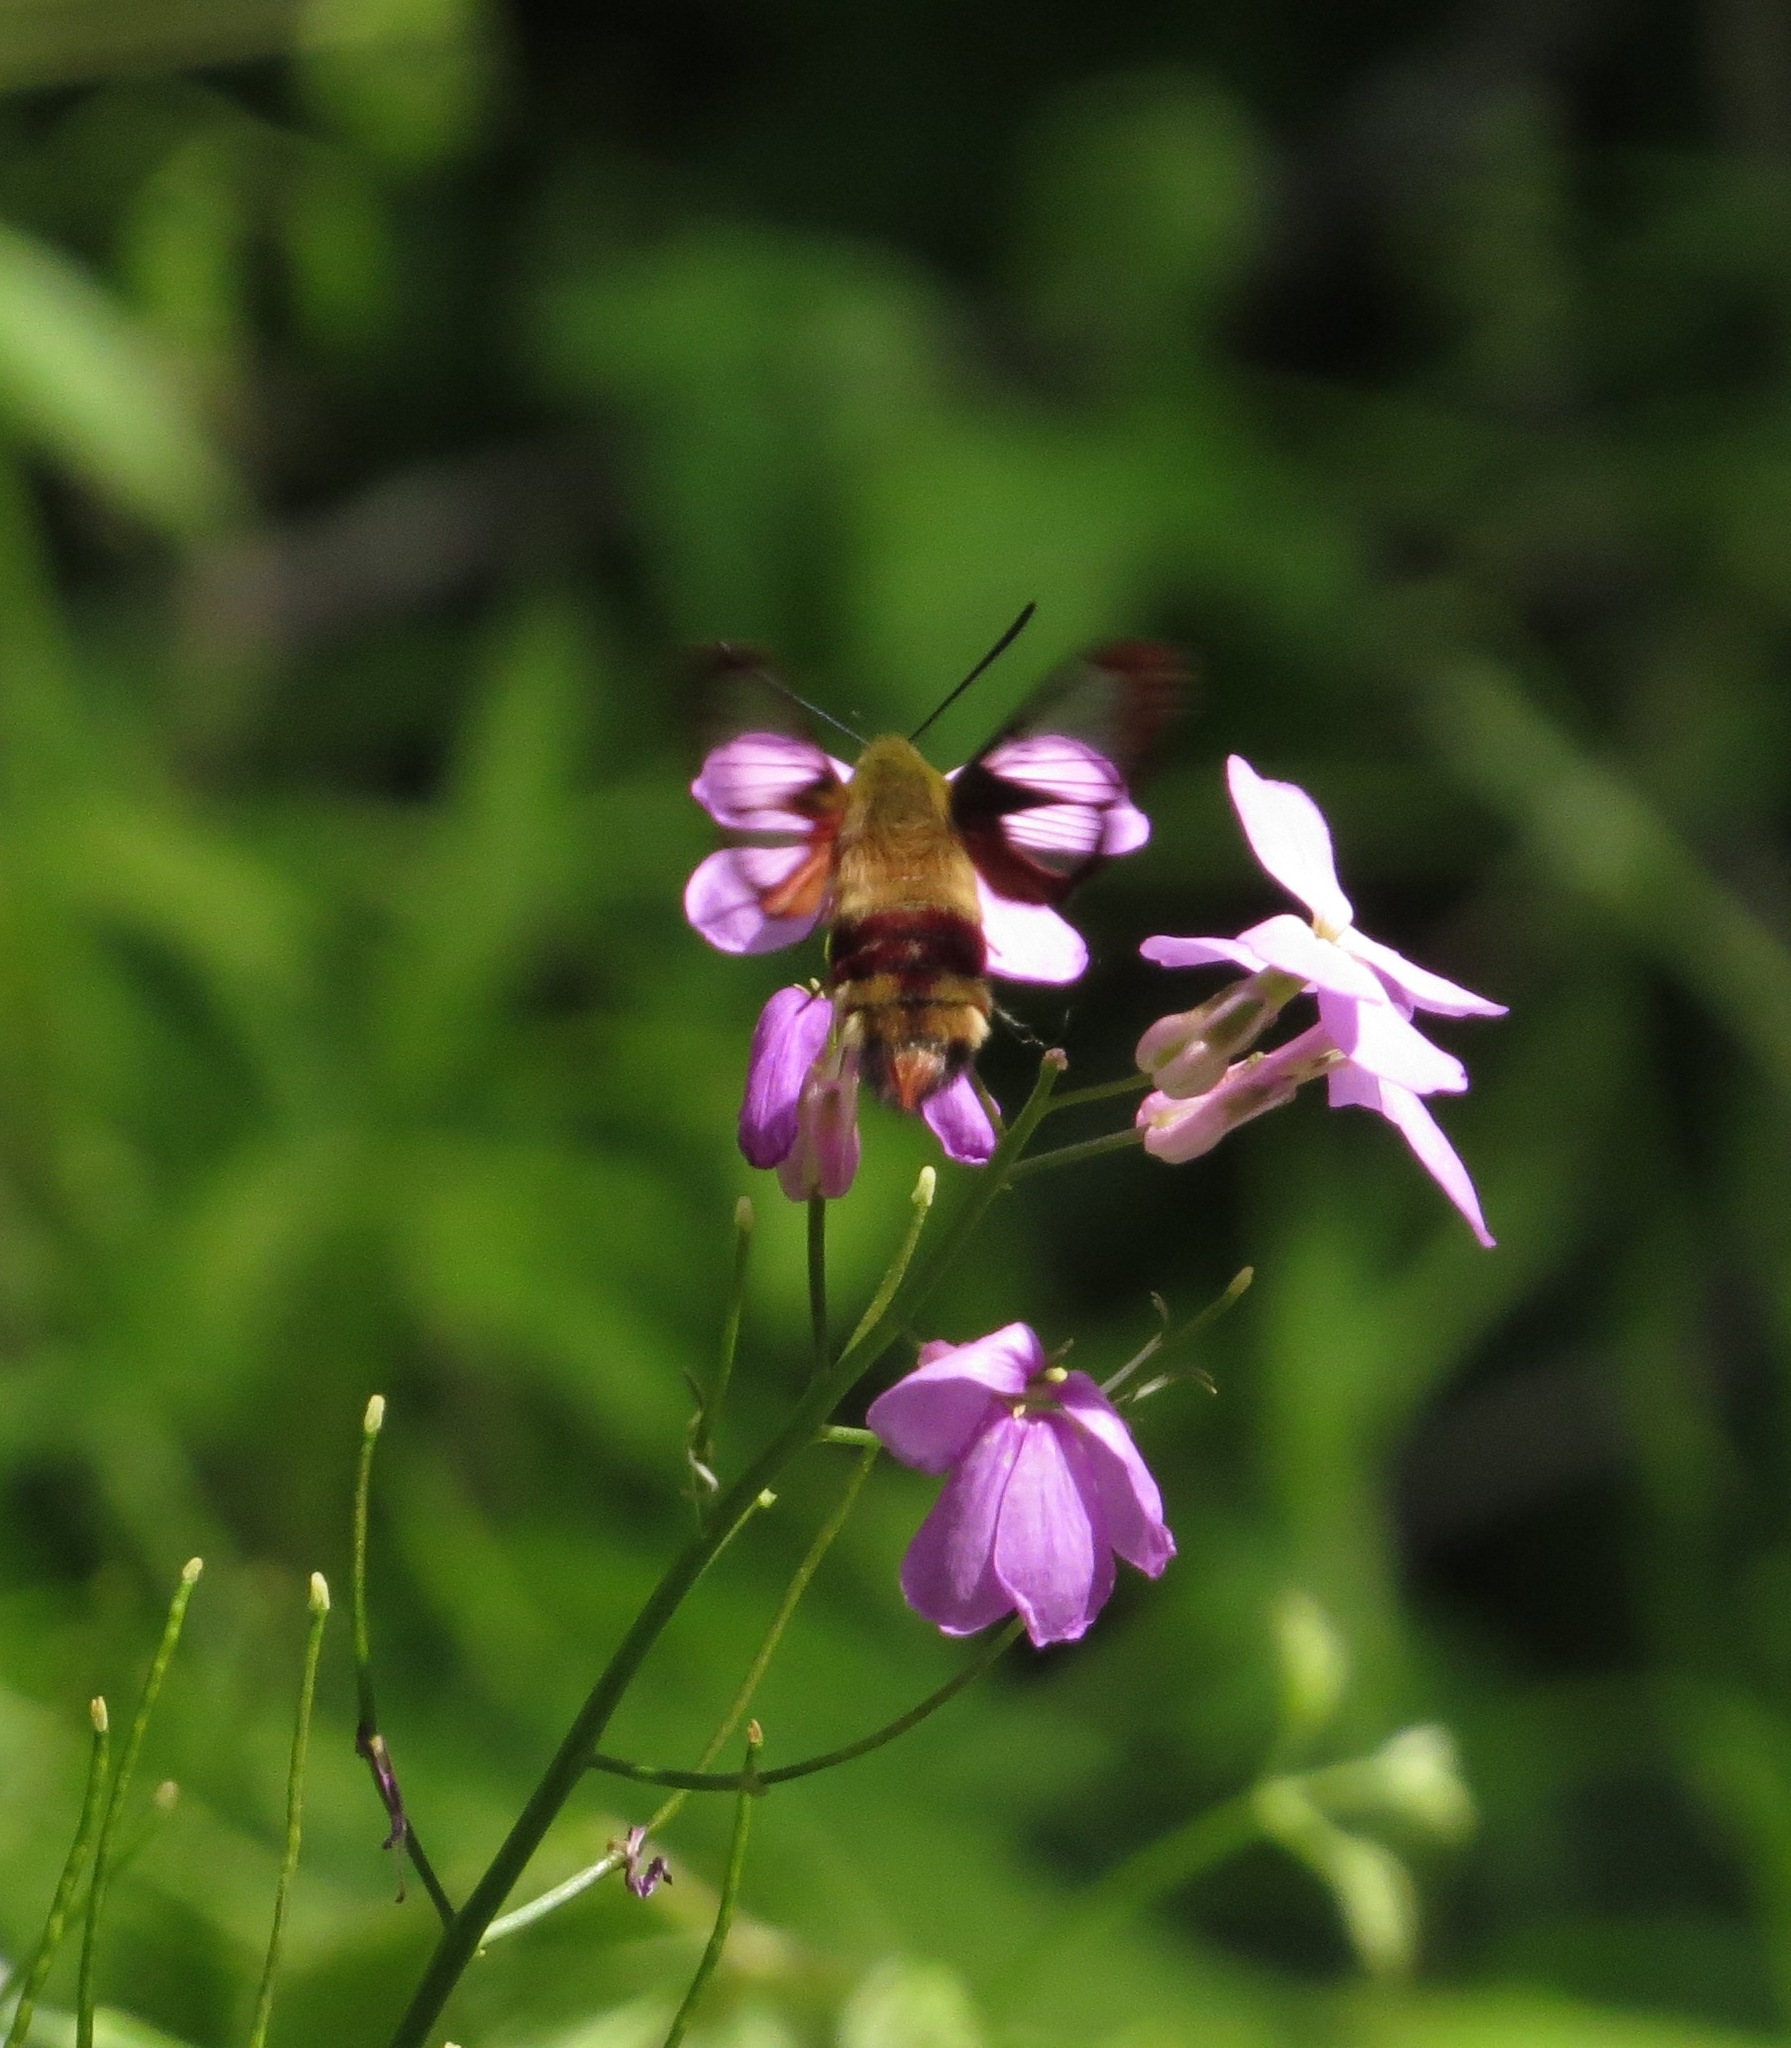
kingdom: Animalia
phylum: Arthropoda
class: Insecta
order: Lepidoptera
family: Sphingidae
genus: Hemaris
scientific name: Hemaris diffinis
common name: Bumblebee moth
